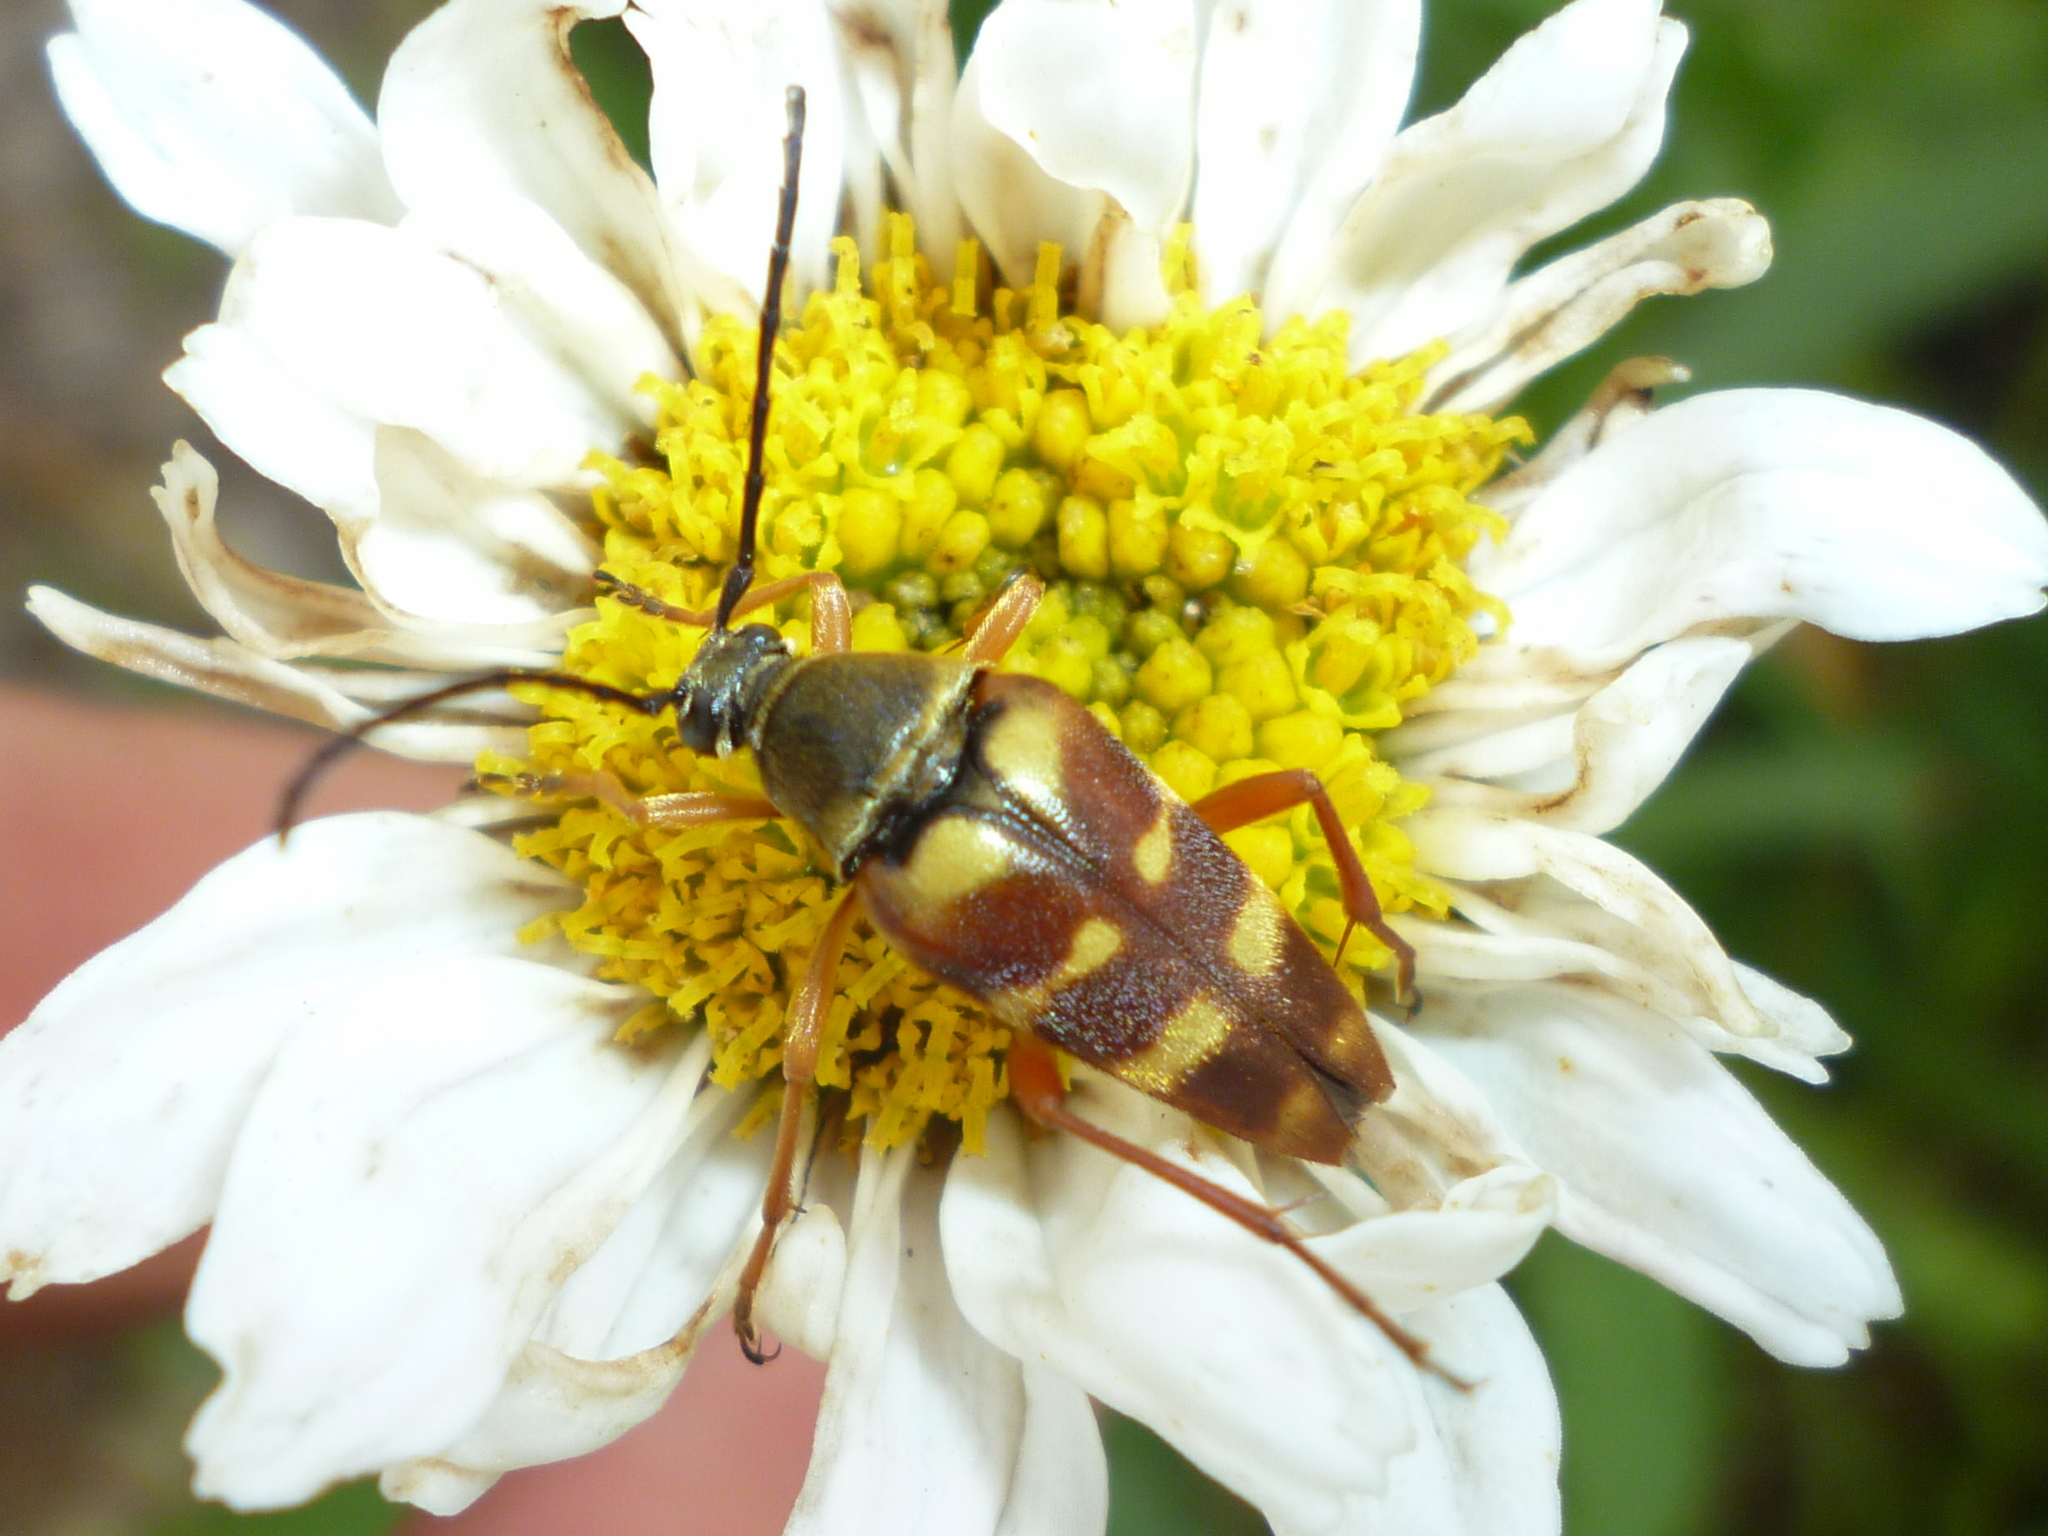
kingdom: Animalia
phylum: Arthropoda
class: Insecta
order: Coleoptera
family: Cerambycidae
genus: Typocerus
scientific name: Typocerus velutinus
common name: Banded longhorn beetle
